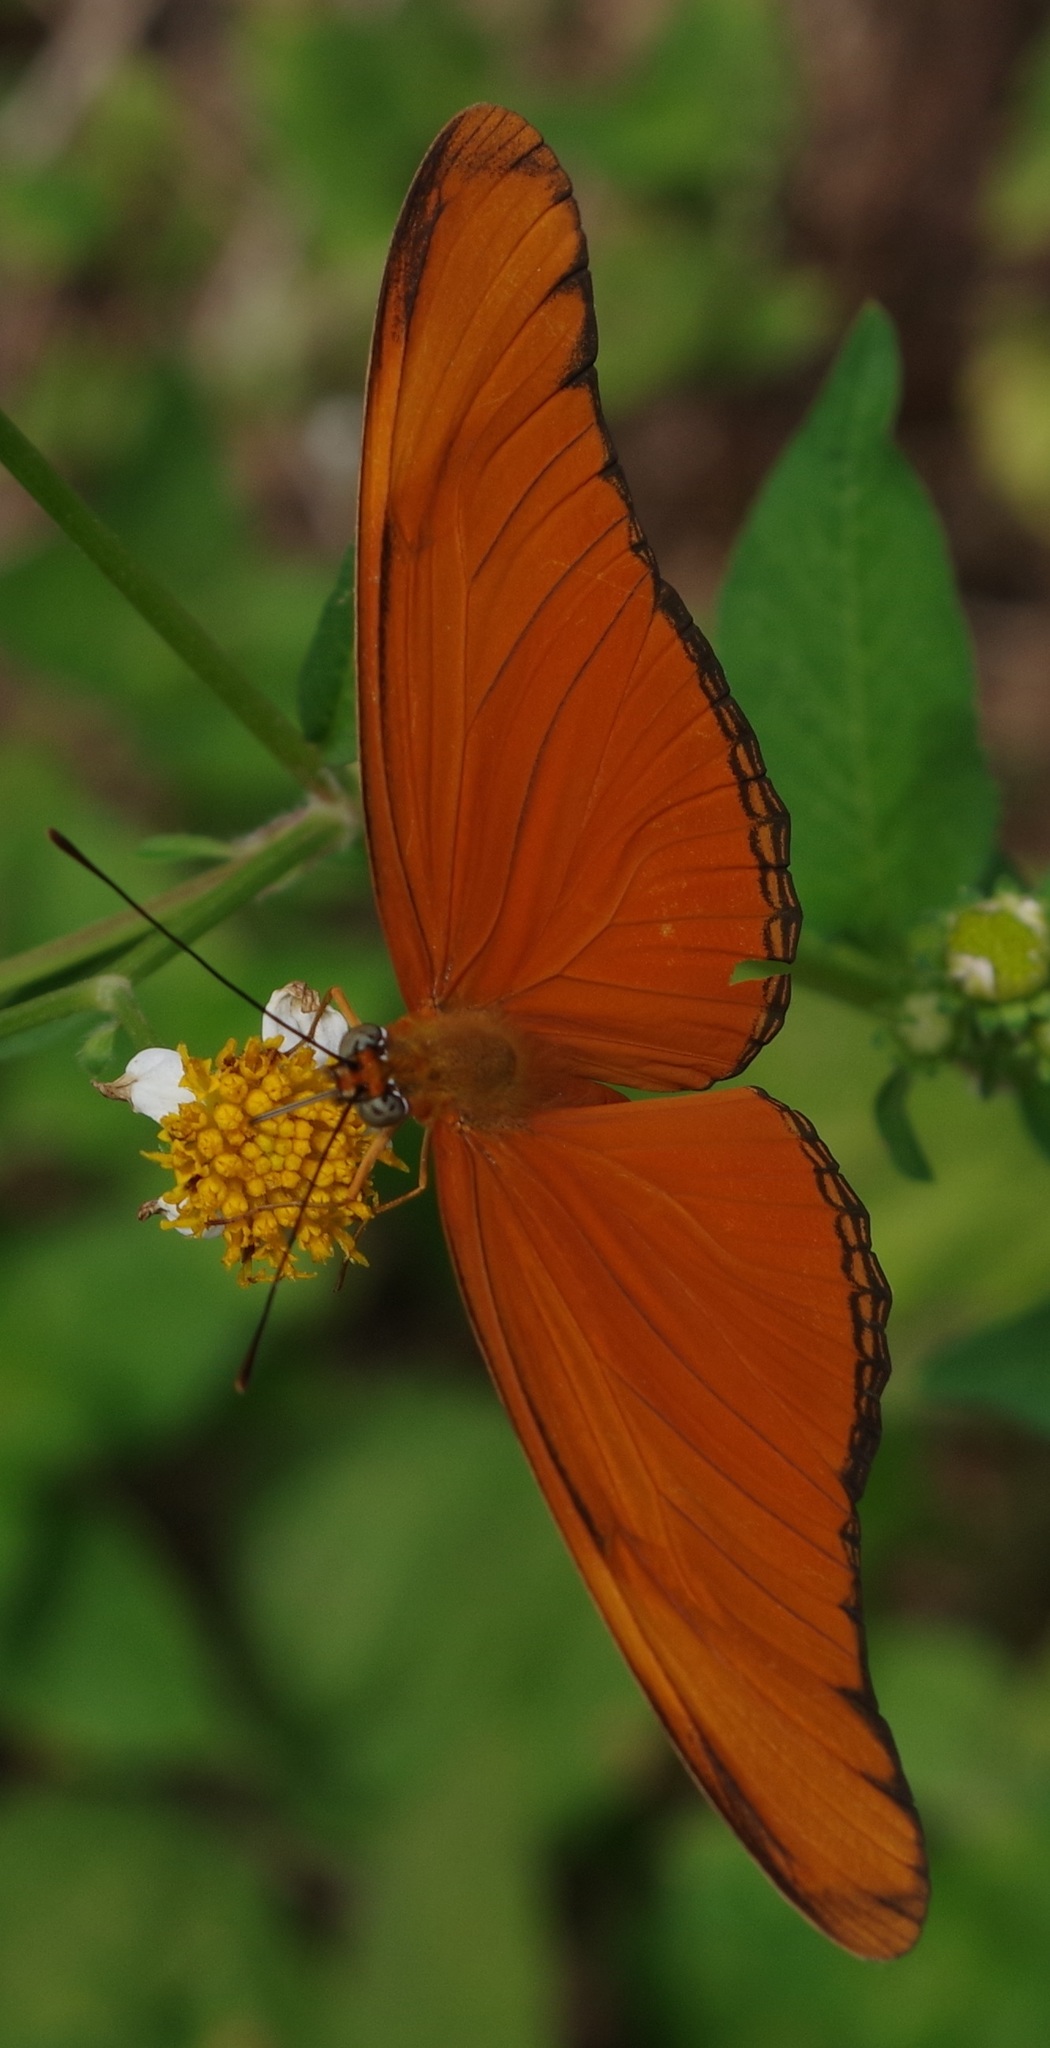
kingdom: Animalia
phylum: Arthropoda
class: Insecta
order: Lepidoptera
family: Nymphalidae
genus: Dryas
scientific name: Dryas iulia
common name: Flambeau
